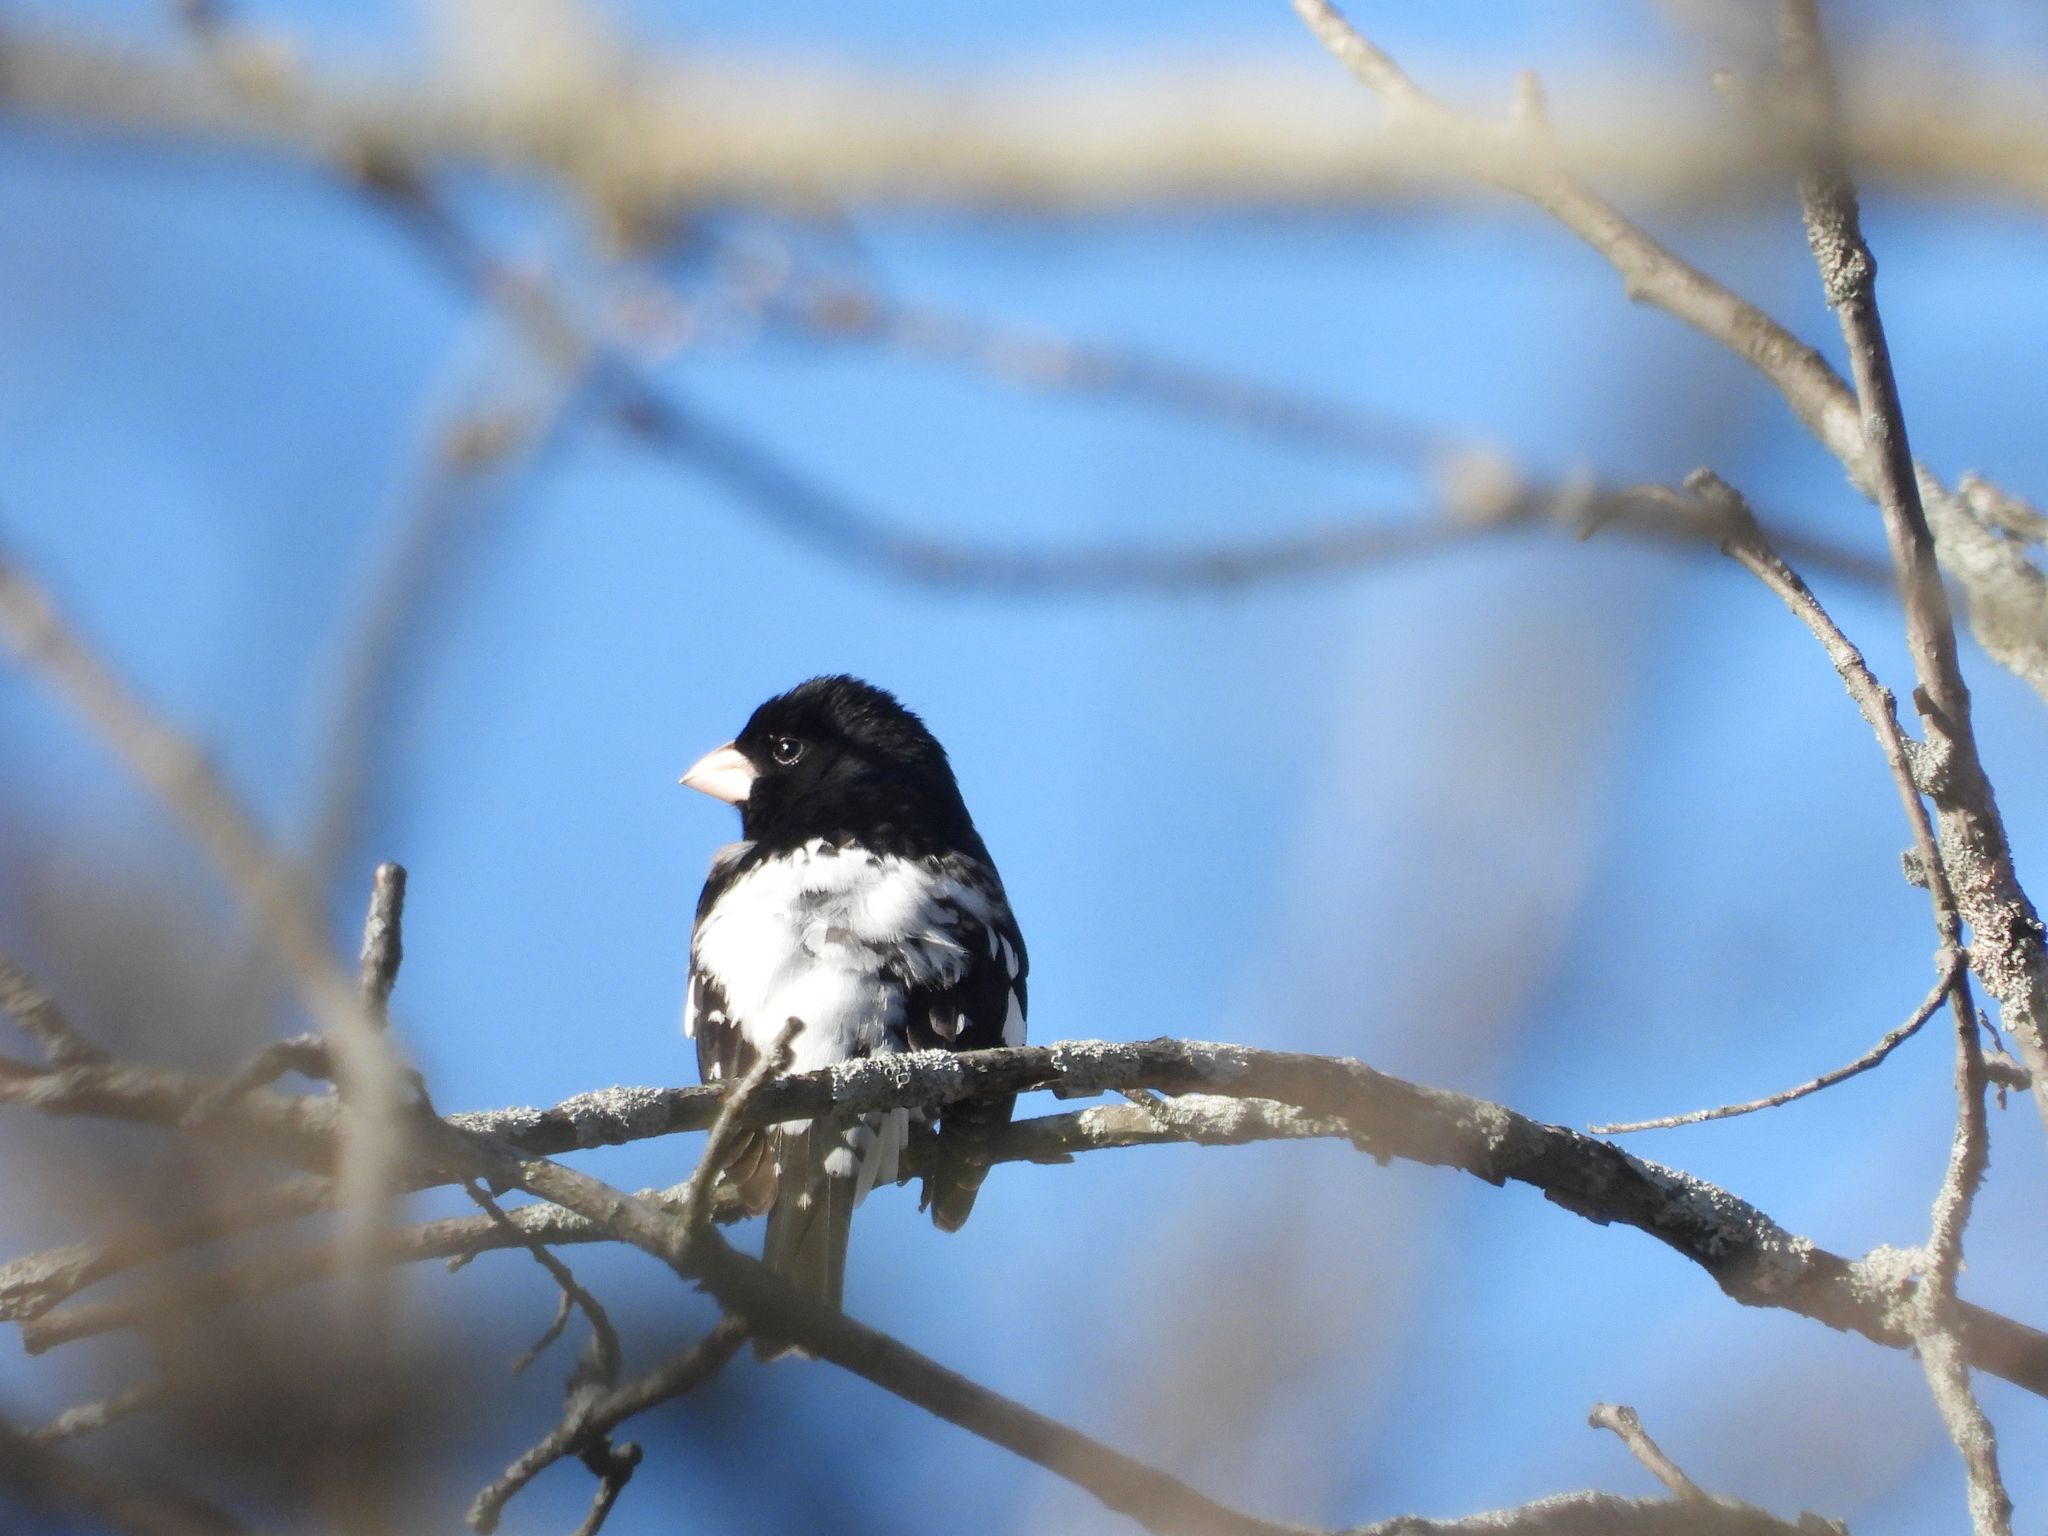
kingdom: Animalia
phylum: Chordata
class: Aves
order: Passeriformes
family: Cardinalidae
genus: Pheucticus
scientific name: Pheucticus ludovicianus
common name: Rose-breasted grosbeak
